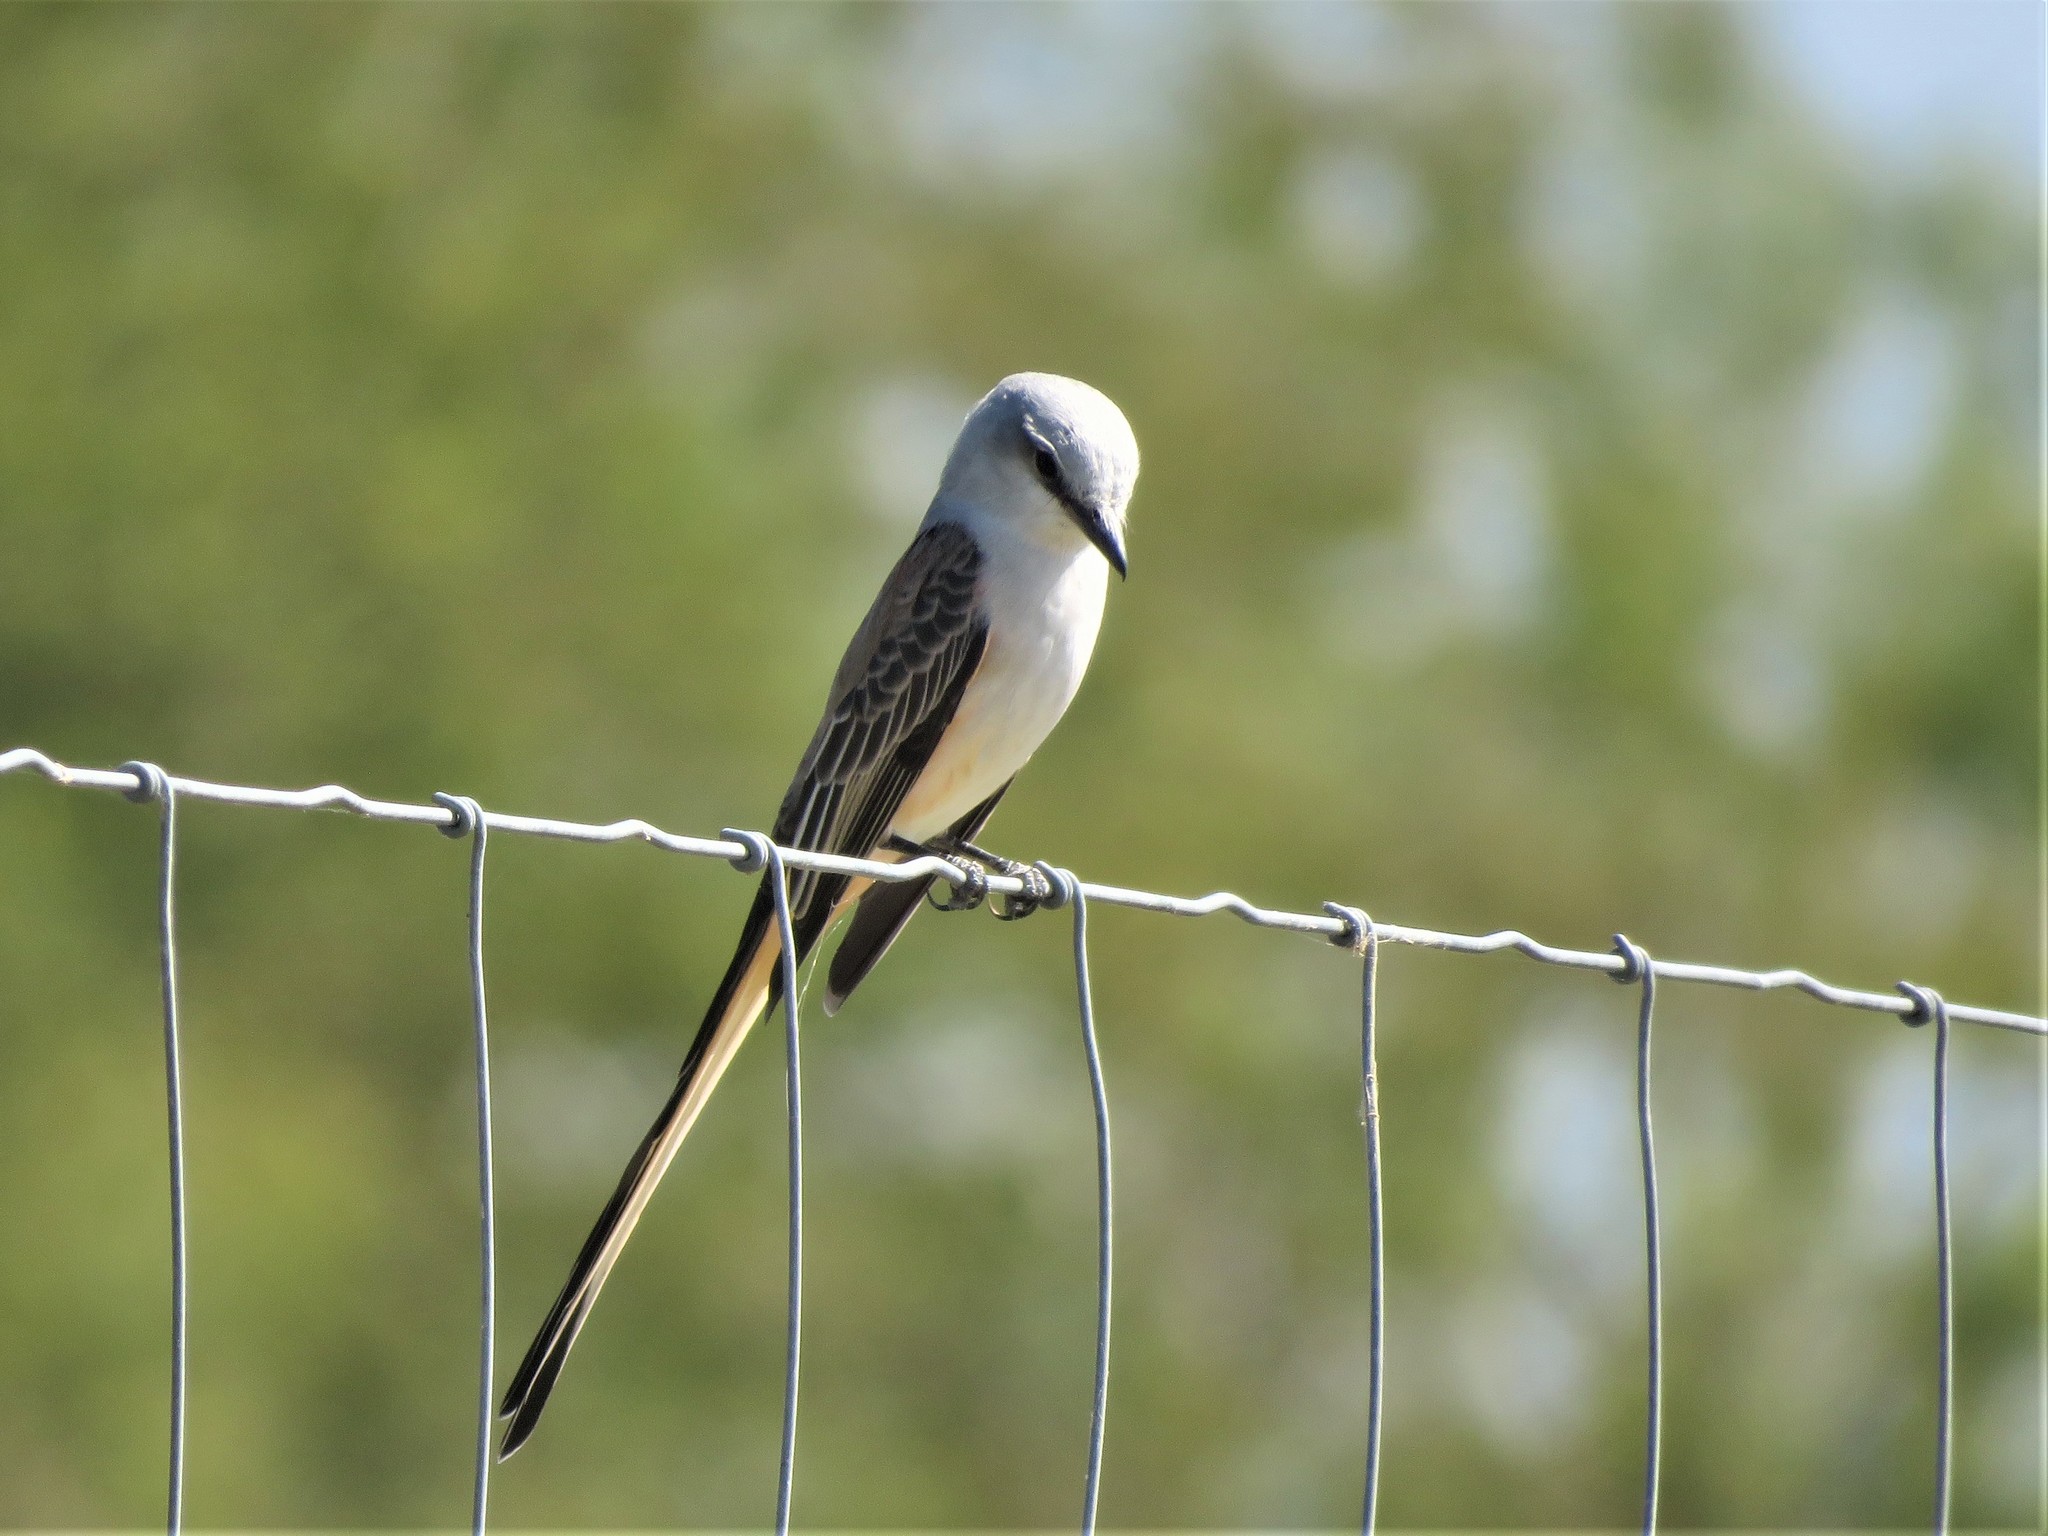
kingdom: Animalia
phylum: Chordata
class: Aves
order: Passeriformes
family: Tyrannidae
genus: Tyrannus
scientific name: Tyrannus forficatus
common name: Scissor-tailed flycatcher
